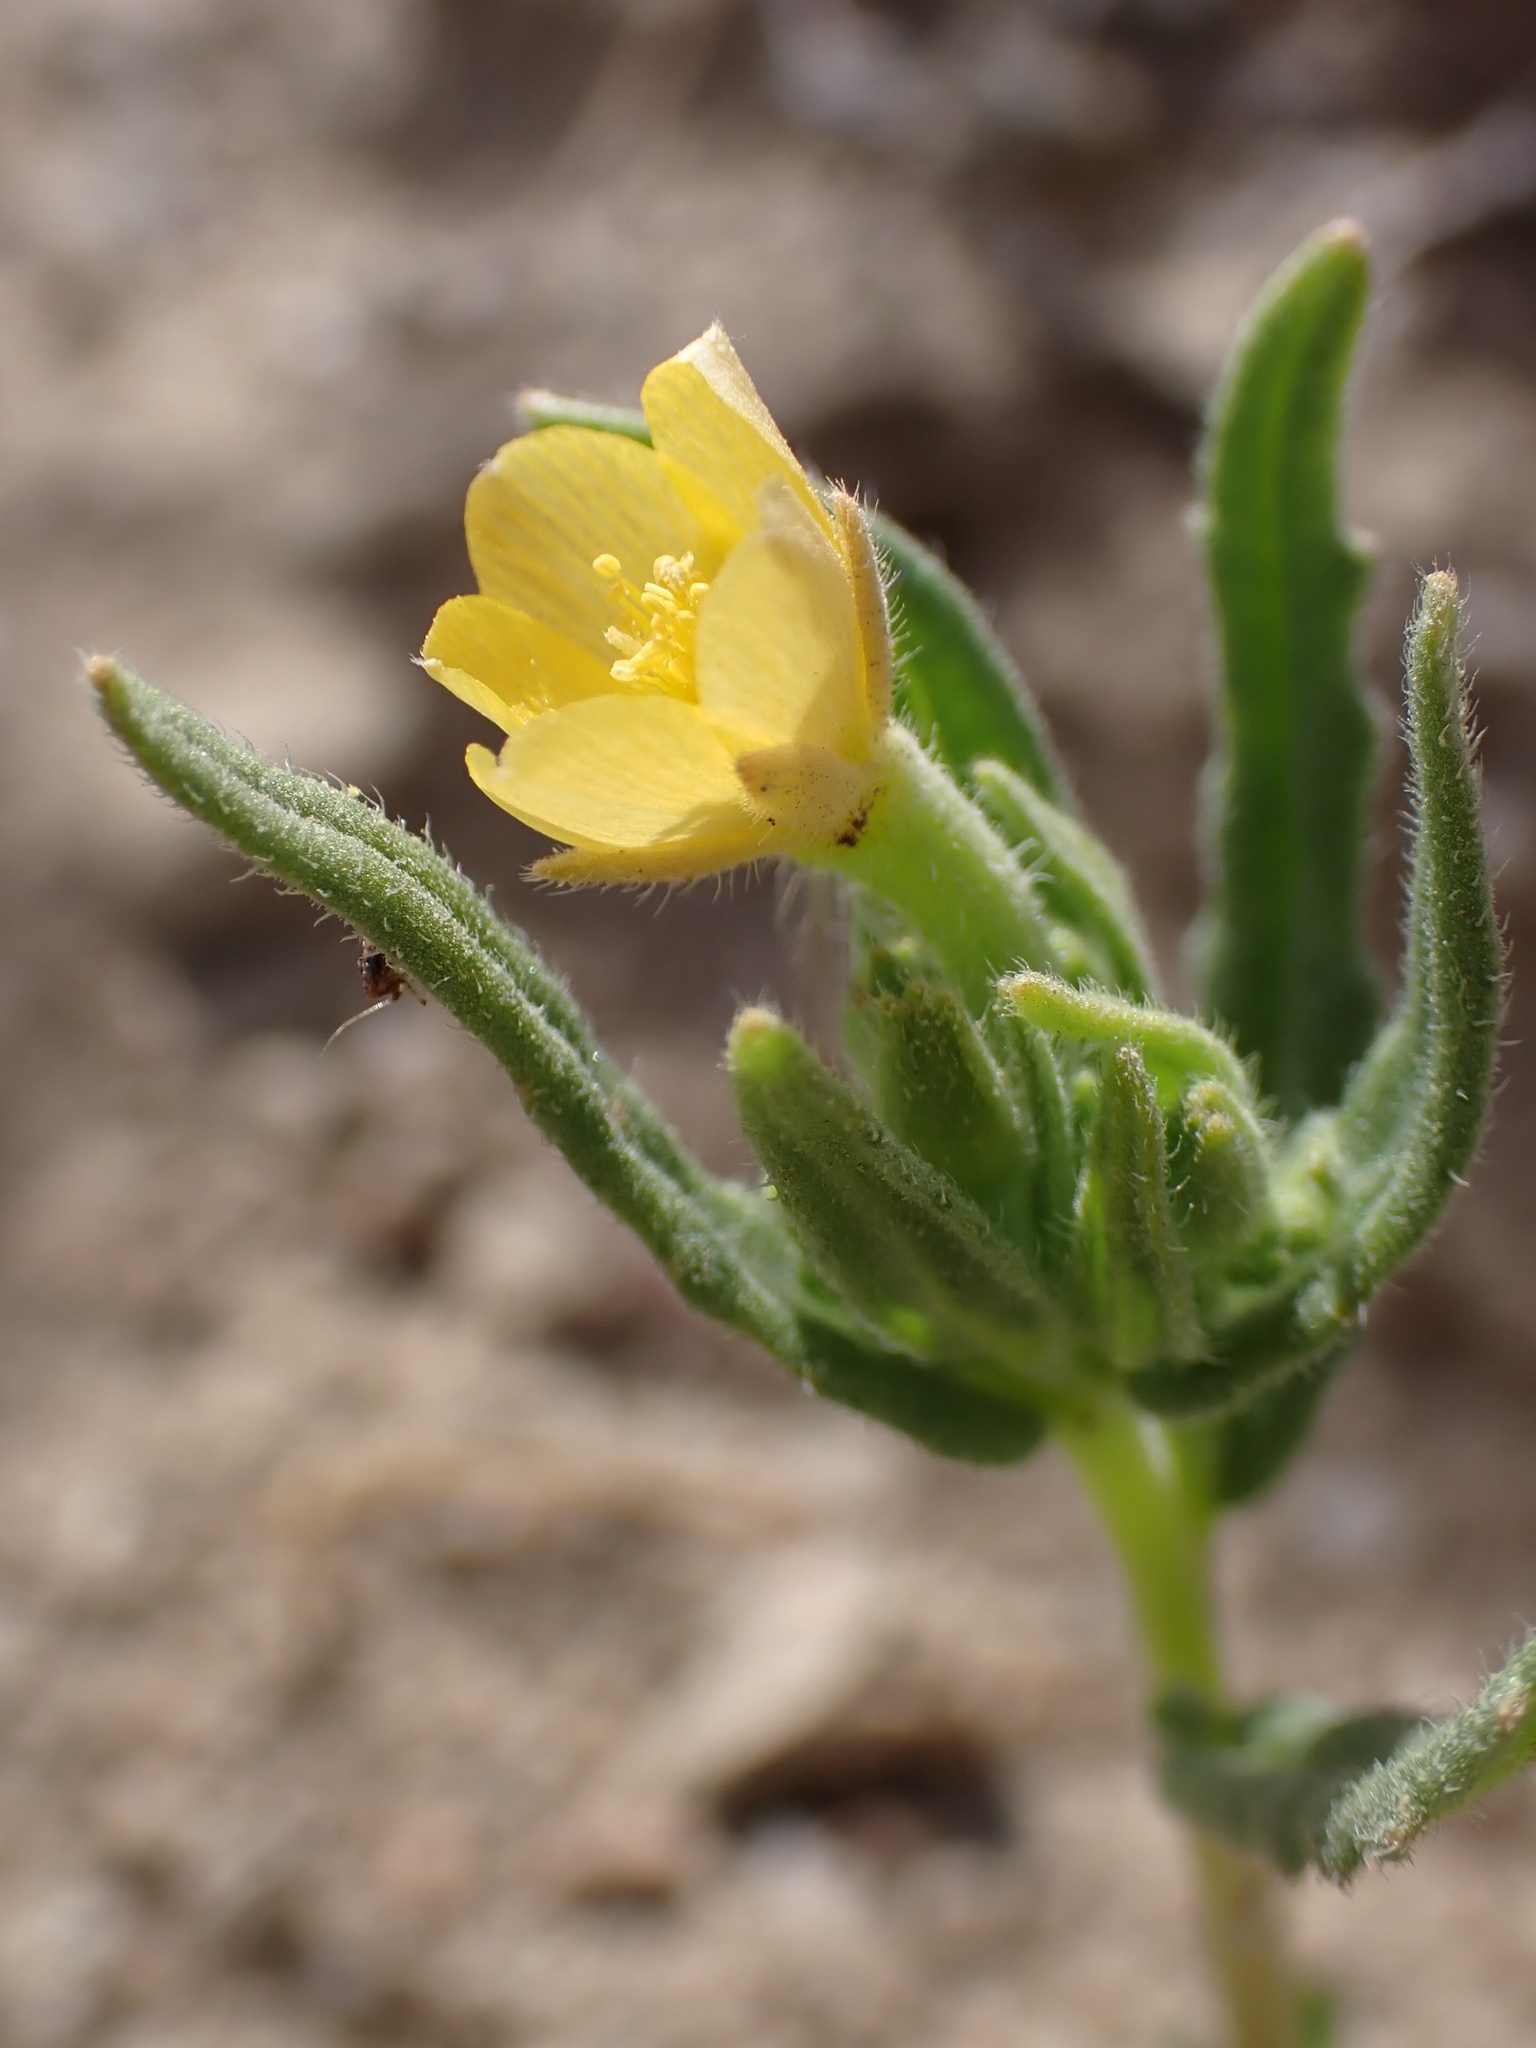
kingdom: Plantae
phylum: Tracheophyta
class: Magnoliopsida
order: Cornales
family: Loasaceae
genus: Mentzelia
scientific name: Mentzelia affinis
